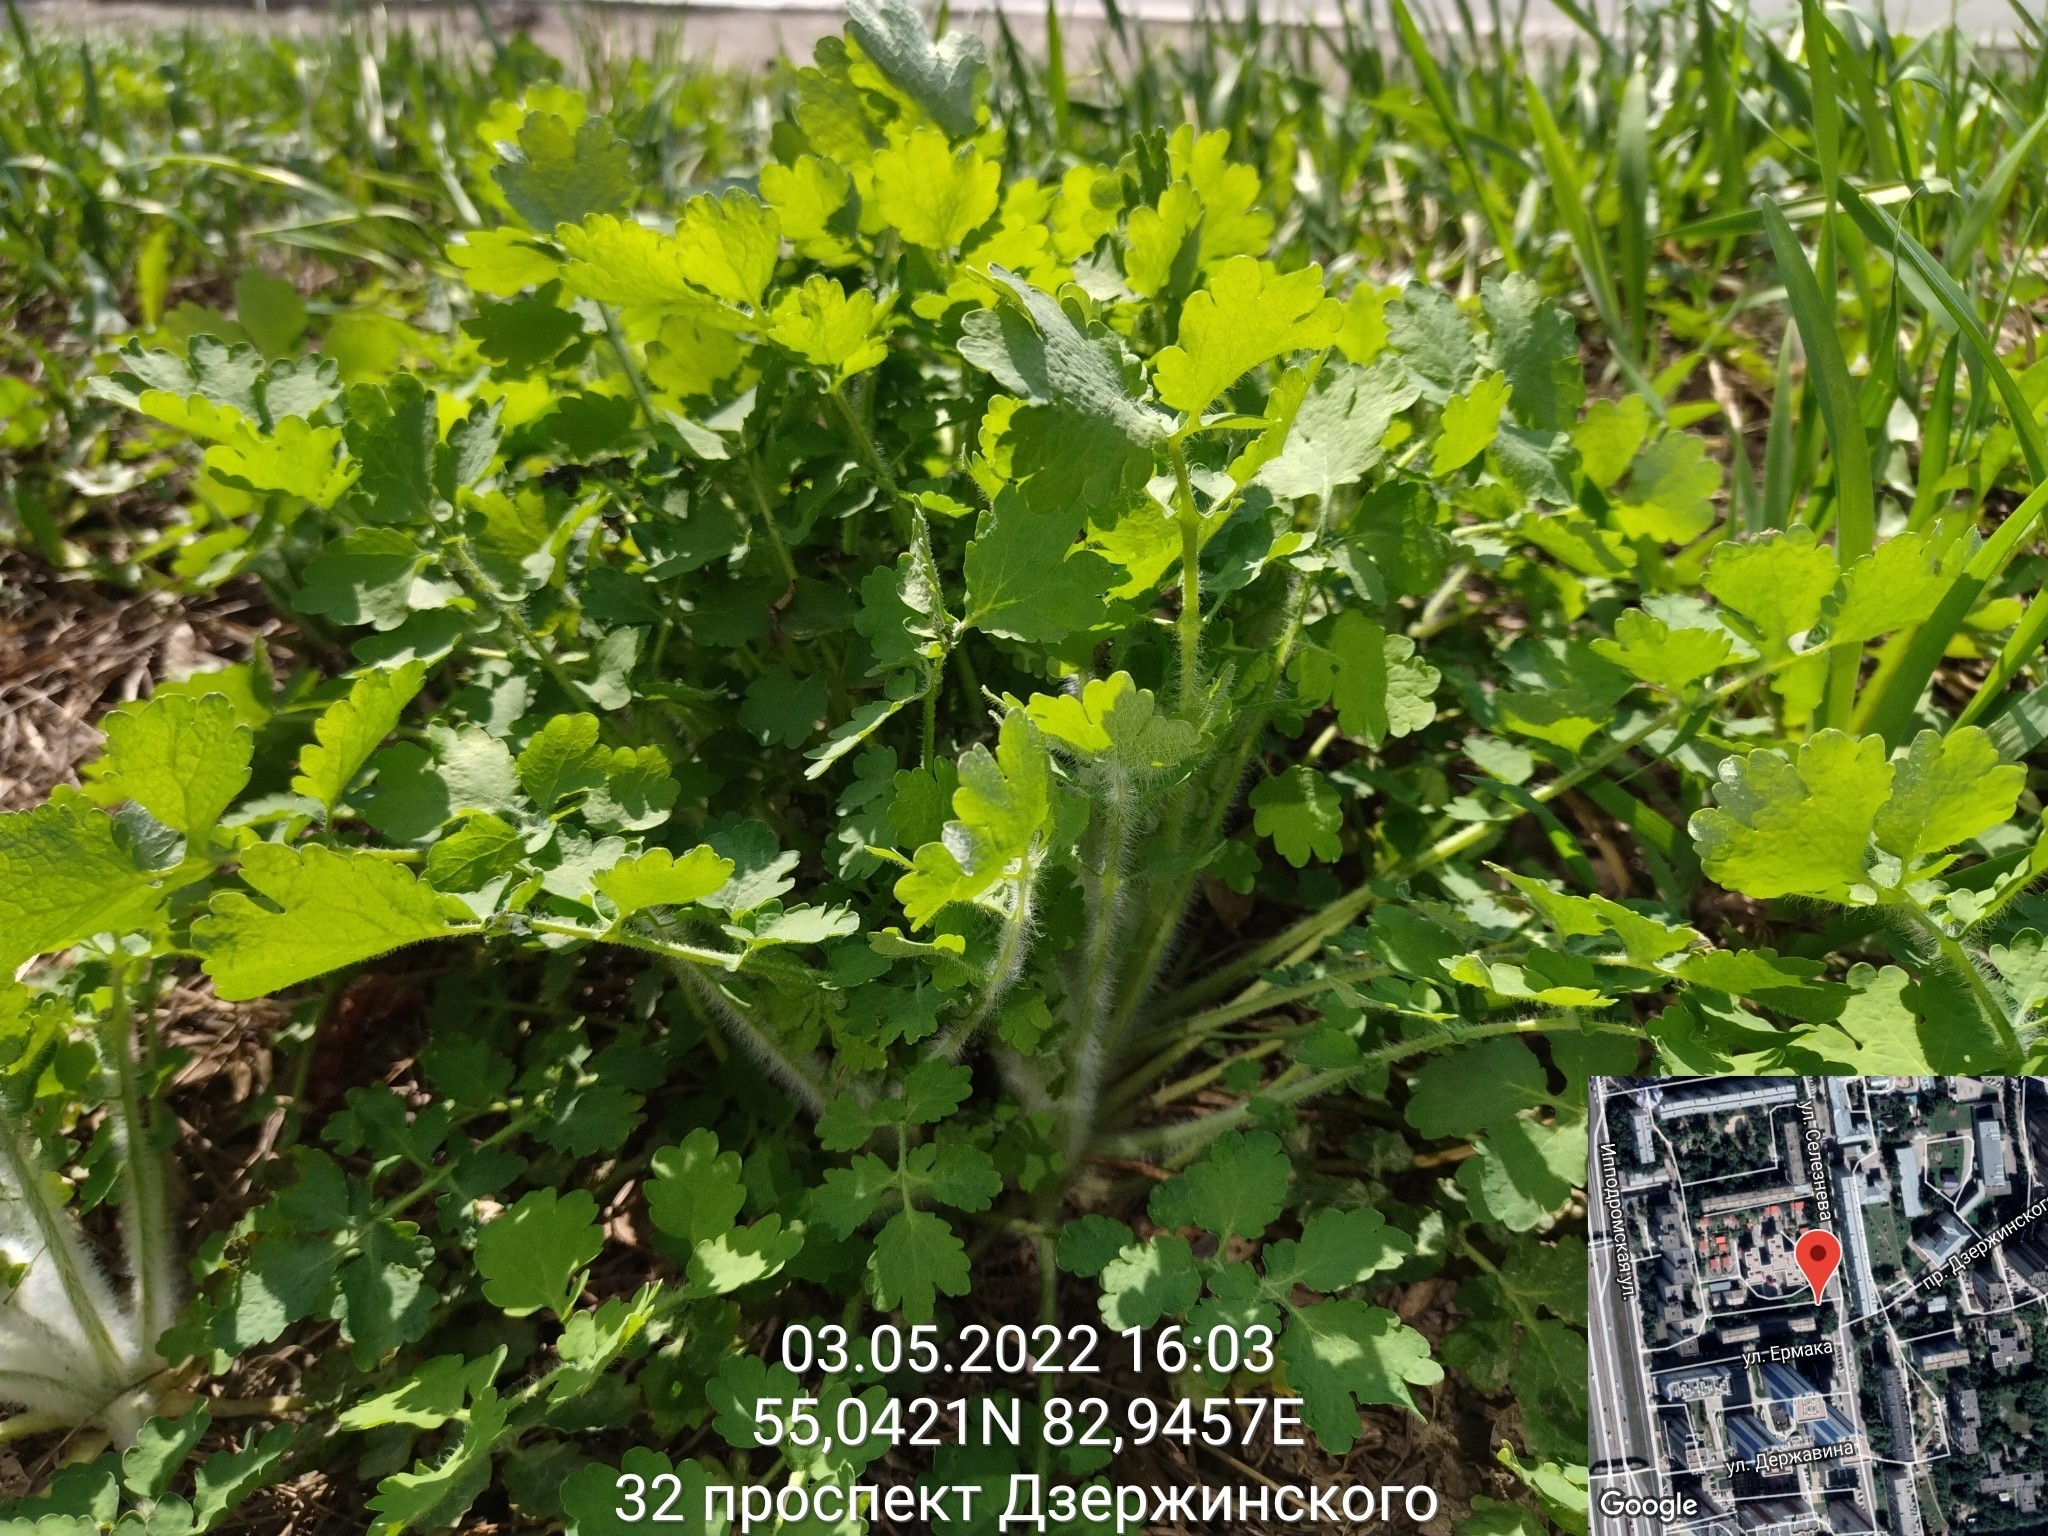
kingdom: Plantae
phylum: Tracheophyta
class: Magnoliopsida
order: Ranunculales
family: Papaveraceae
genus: Chelidonium
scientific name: Chelidonium majus
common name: Greater celandine
